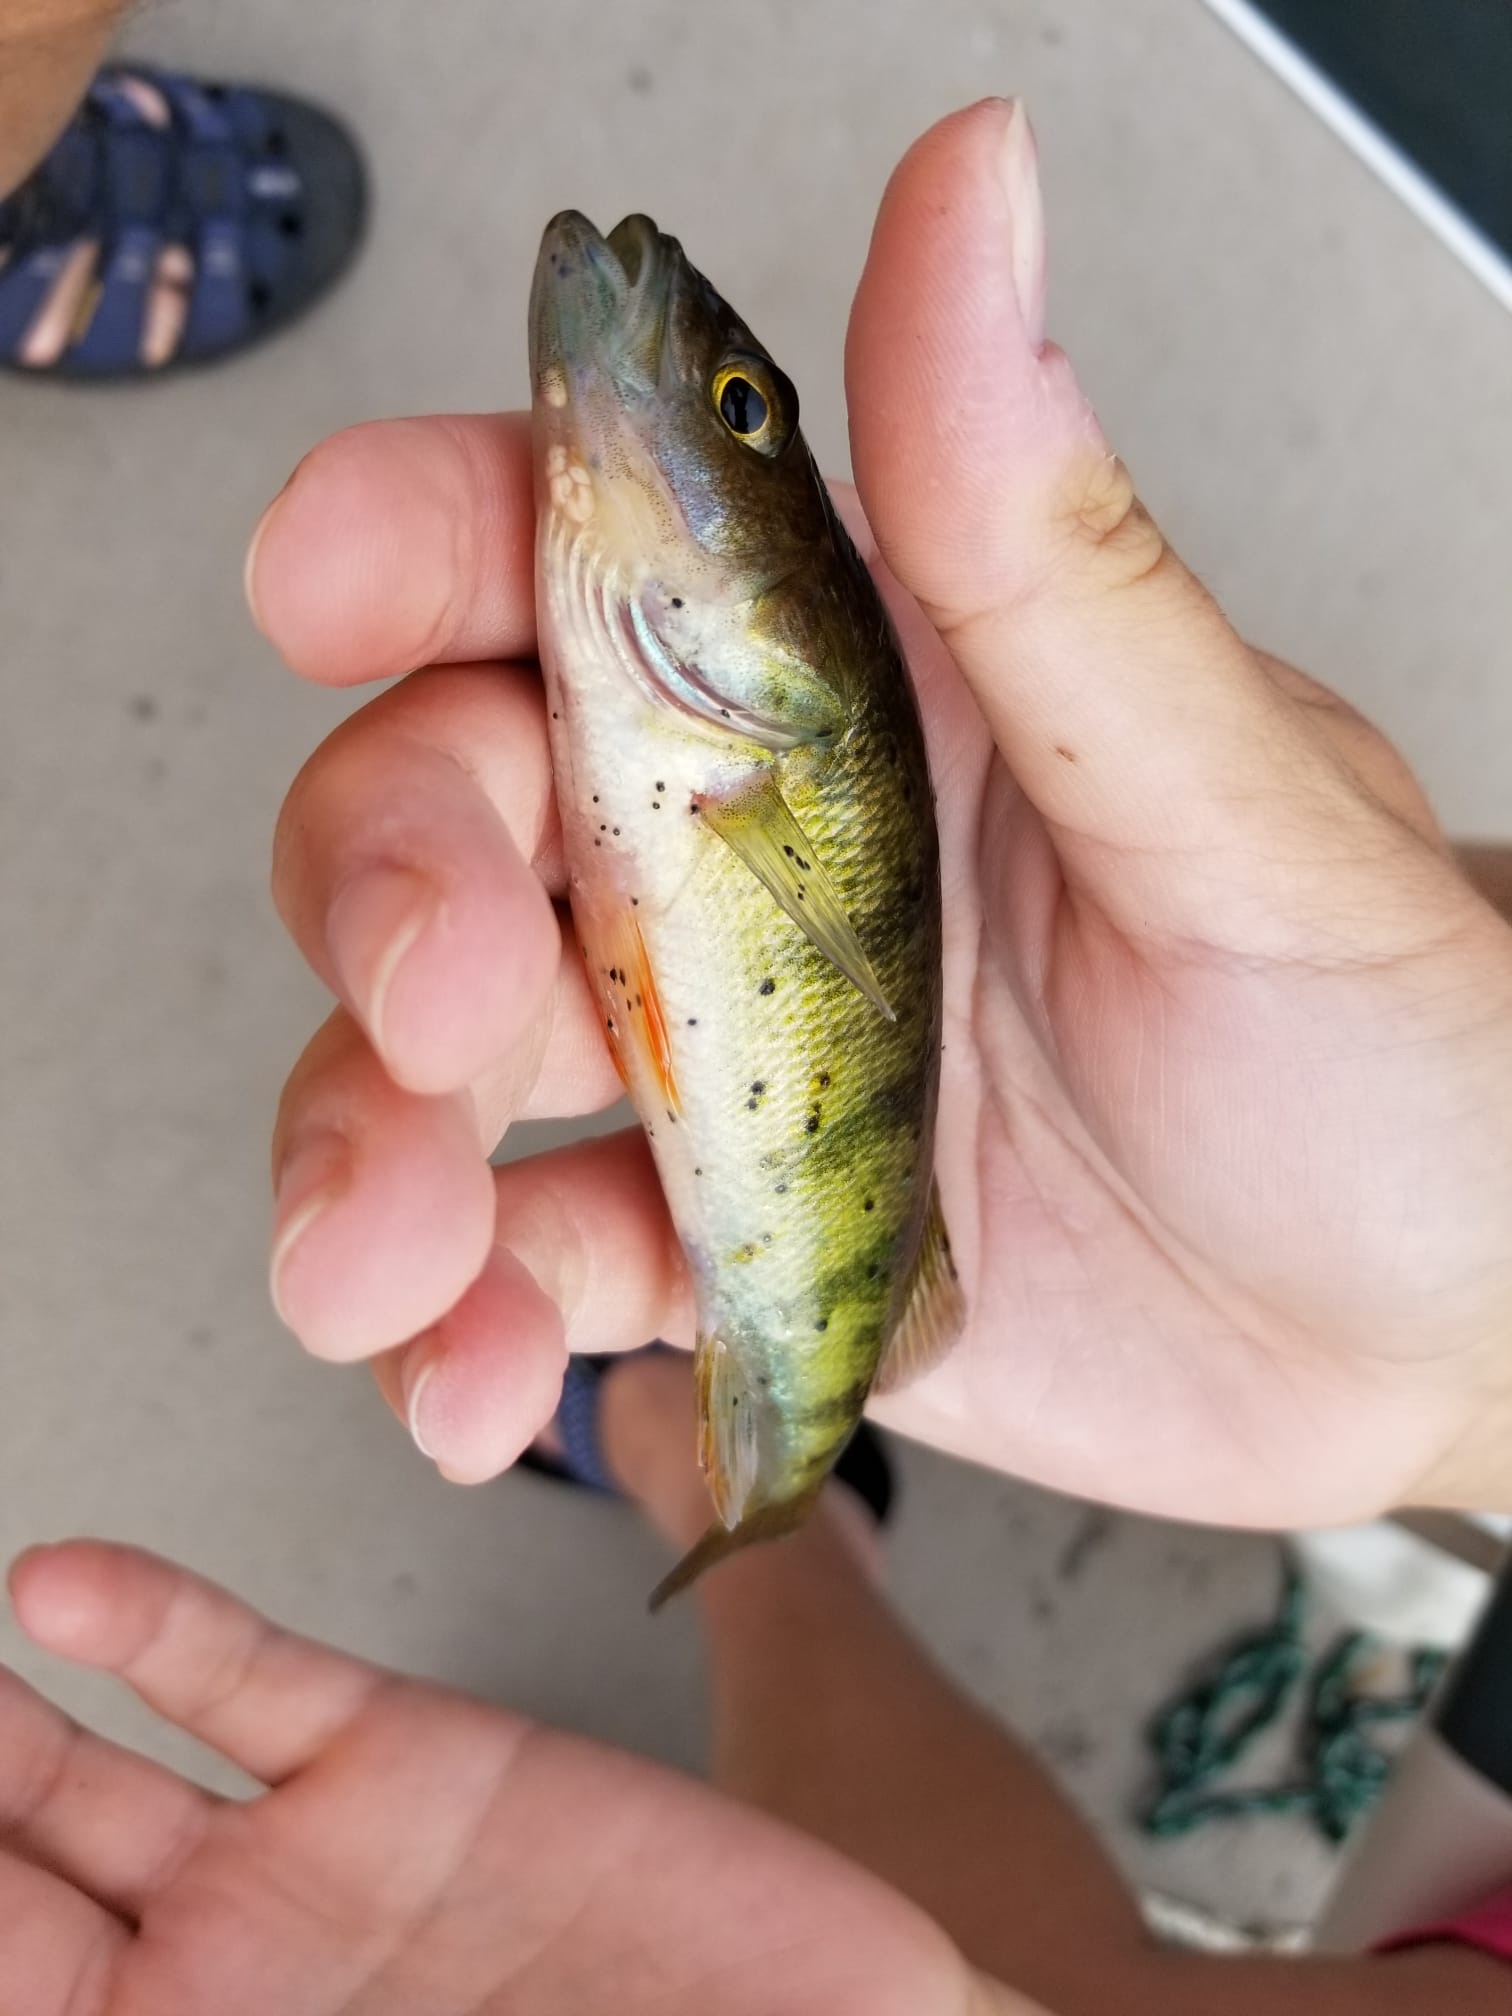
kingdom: Animalia
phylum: Chordata
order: Perciformes
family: Percidae
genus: Perca
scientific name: Perca flavescens
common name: Yellow perch
